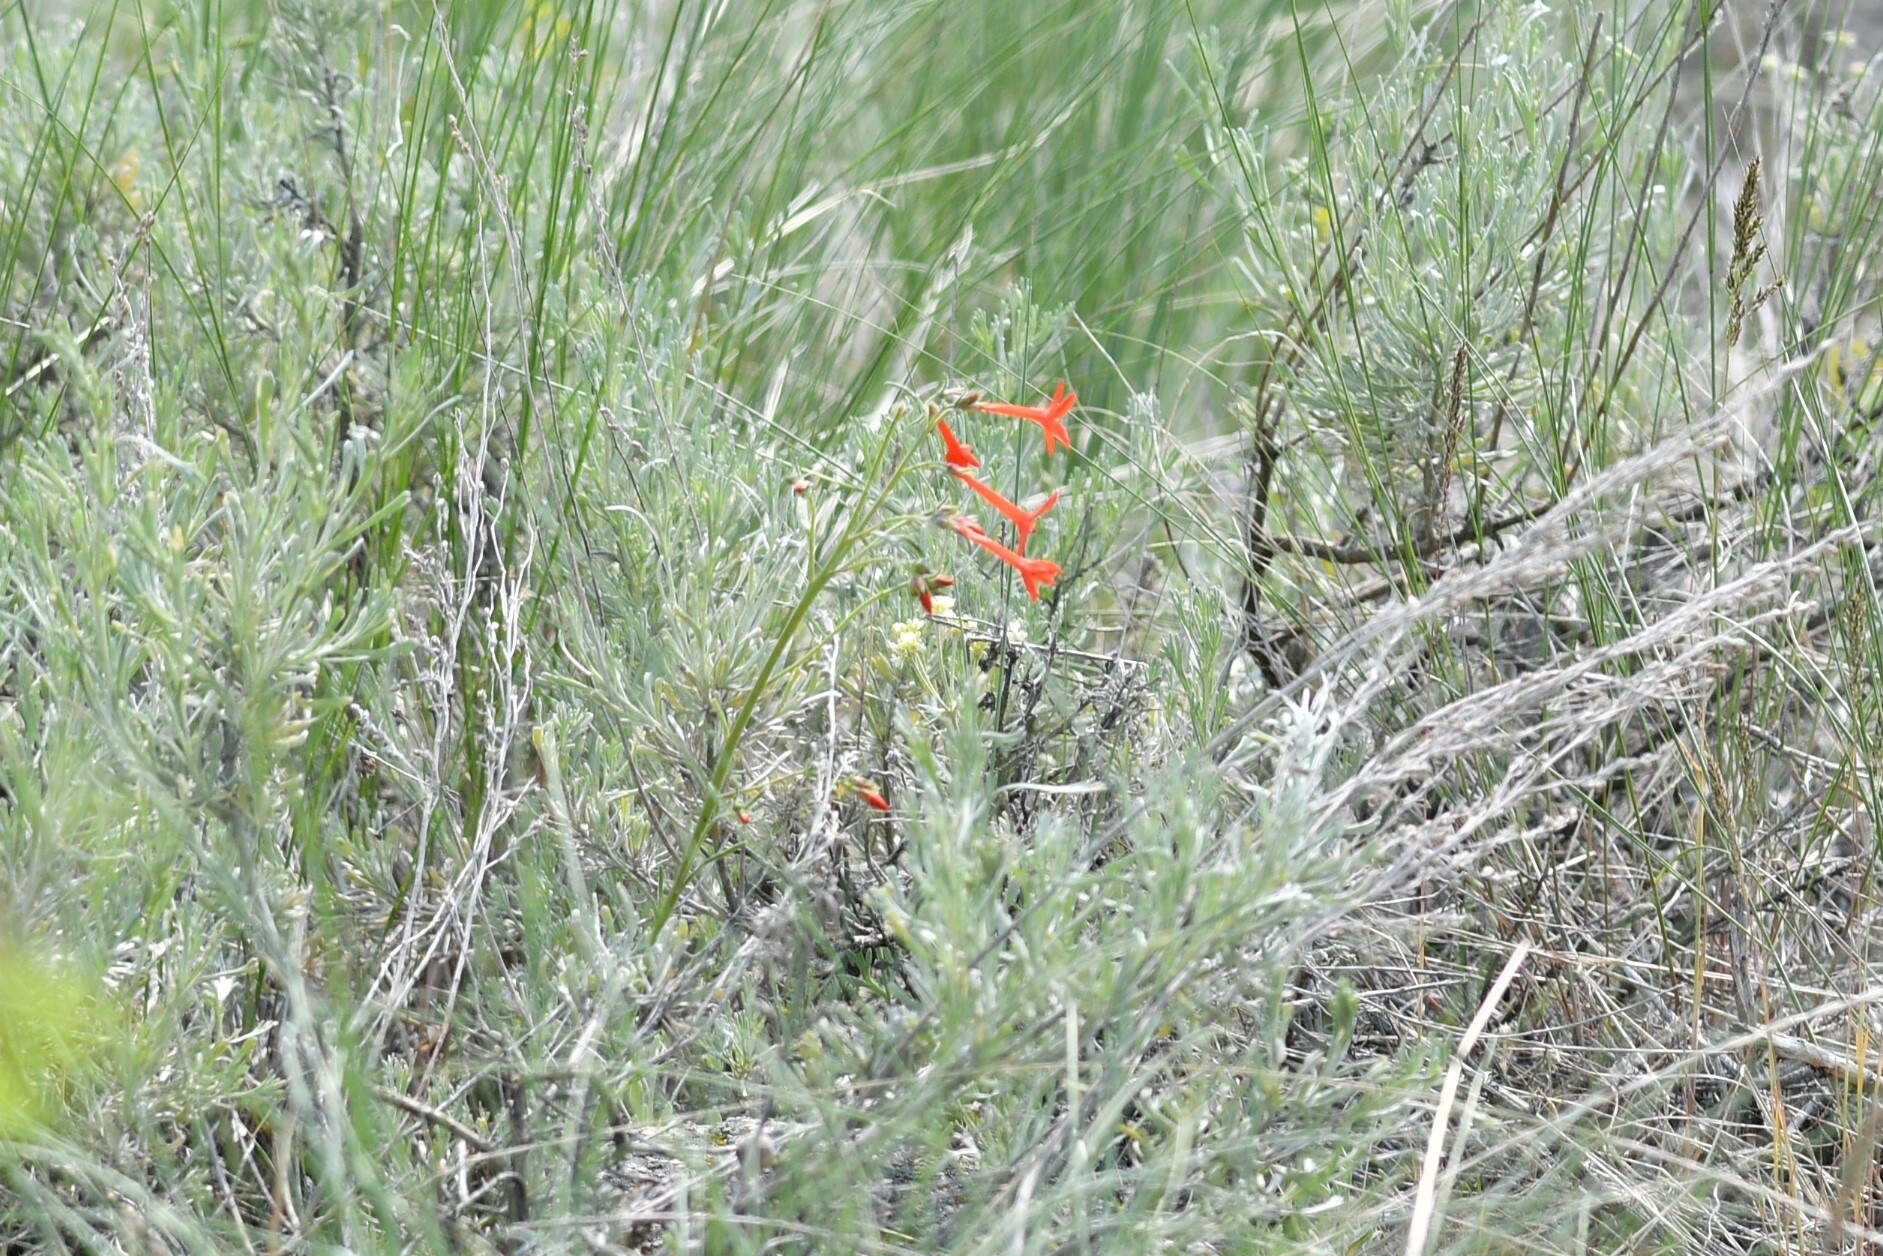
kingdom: Plantae
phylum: Tracheophyta
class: Magnoliopsida
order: Ericales
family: Polemoniaceae
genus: Ipomopsis
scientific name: Ipomopsis aggregata
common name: Scarlet gilia
